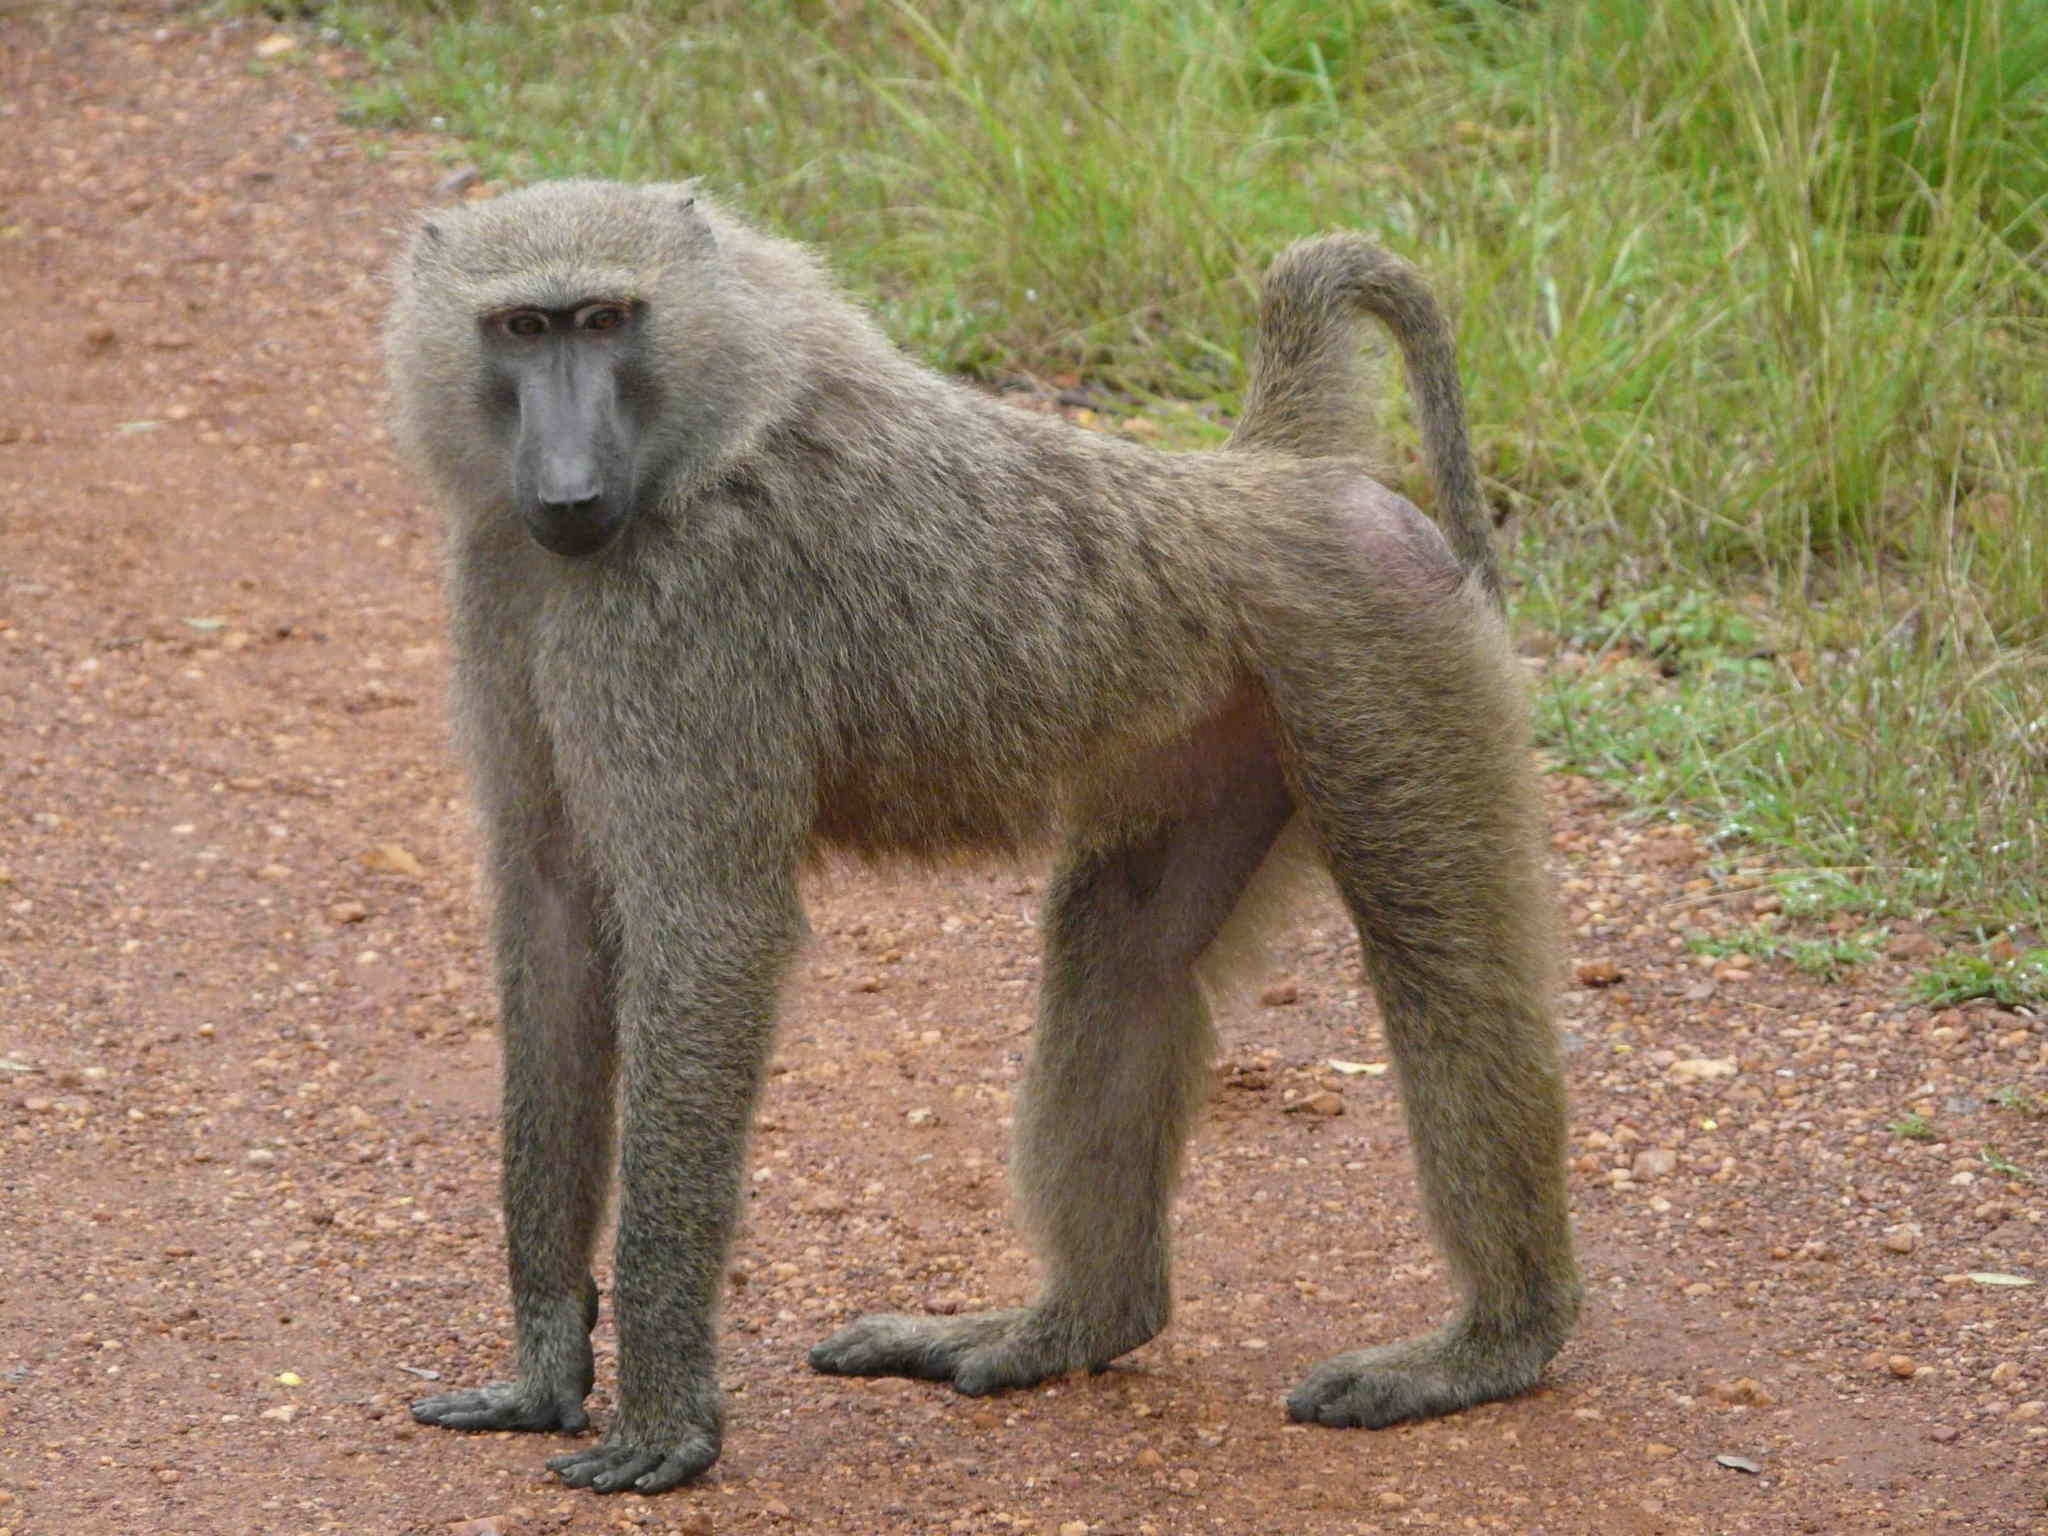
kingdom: Animalia
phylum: Chordata
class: Mammalia
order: Primates
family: Cercopithecidae
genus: Papio
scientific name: Papio anubis
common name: Olive baboon
